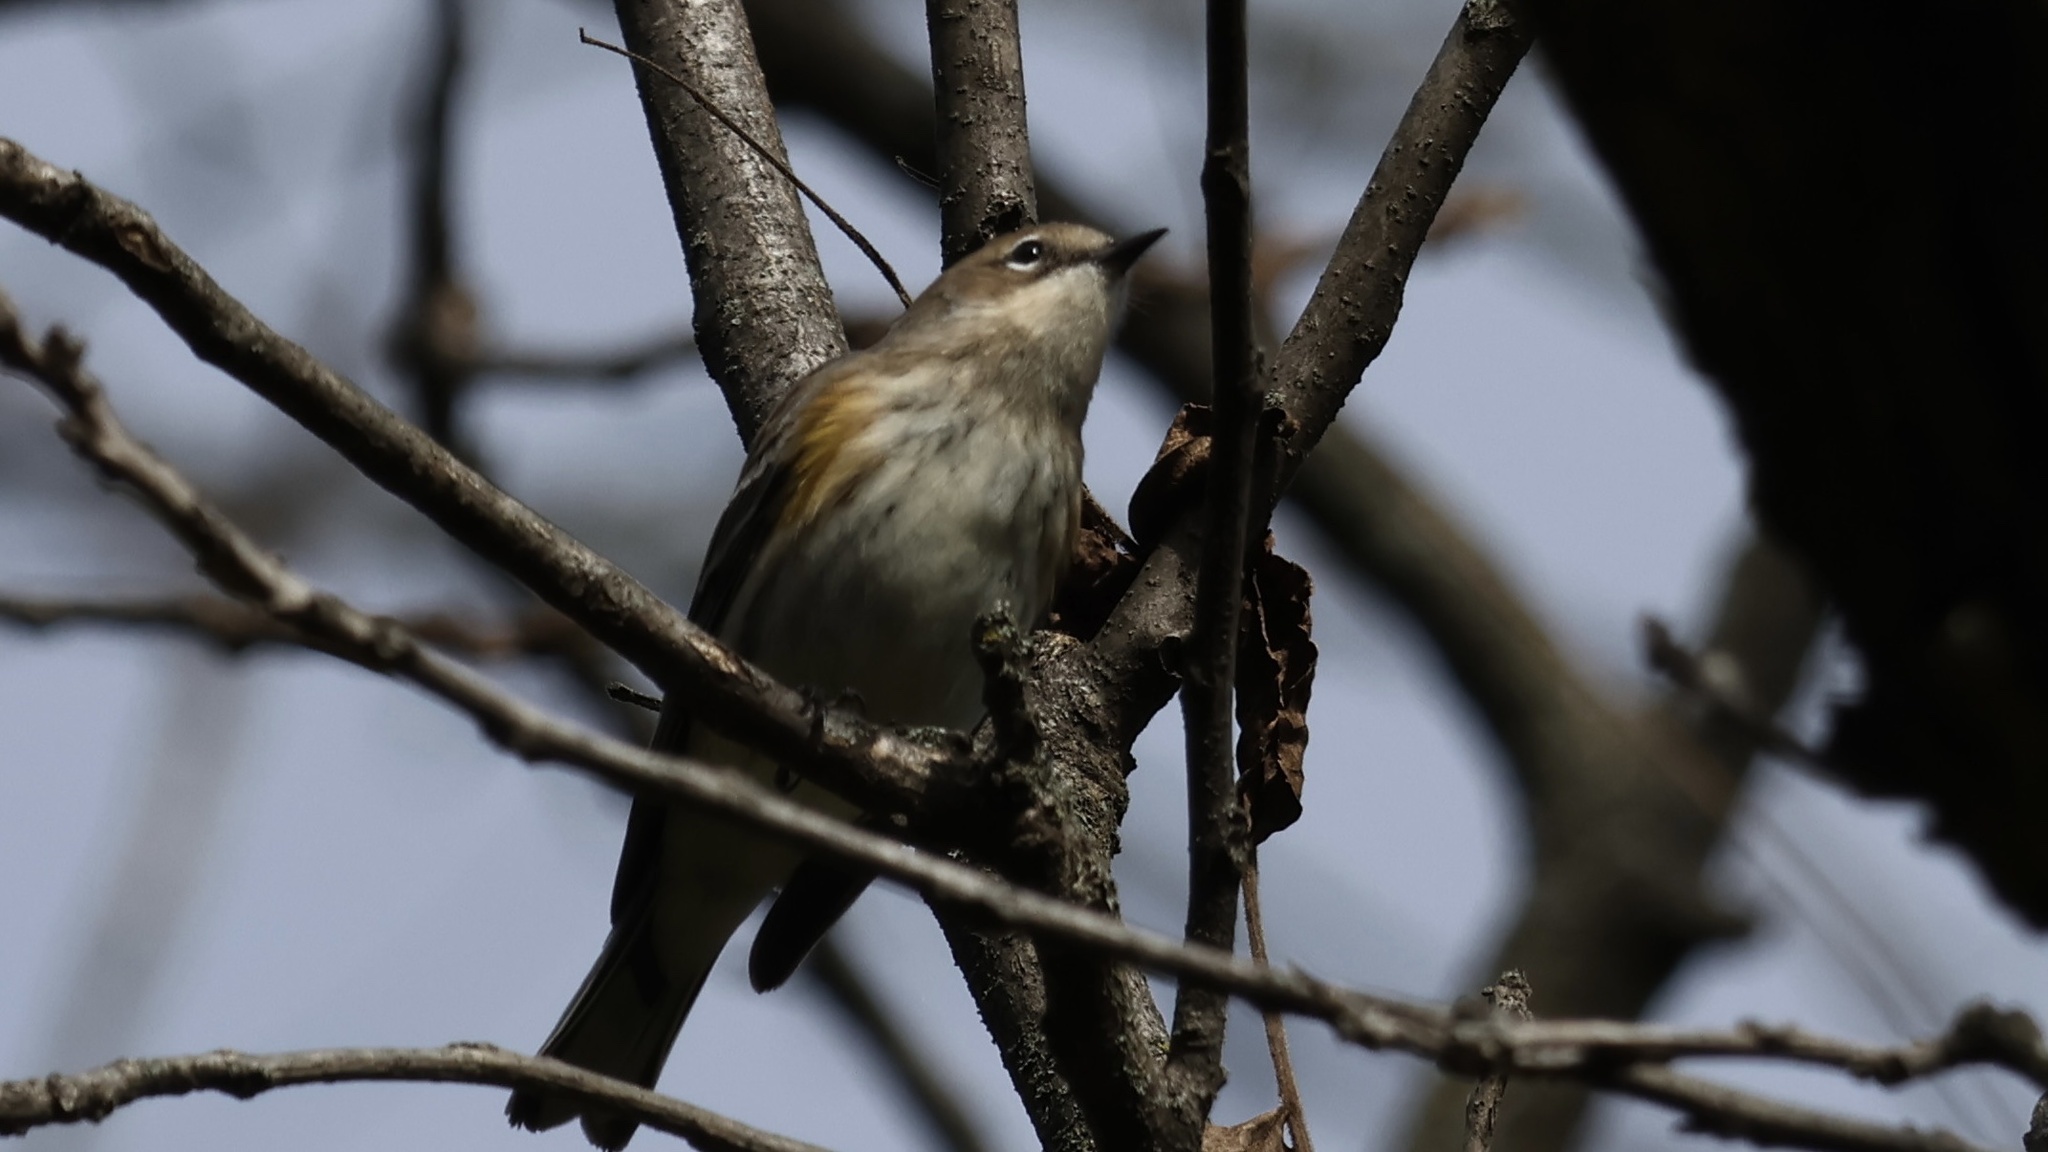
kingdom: Animalia
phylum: Chordata
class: Aves
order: Passeriformes
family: Parulidae
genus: Setophaga
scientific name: Setophaga coronata
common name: Myrtle warbler
